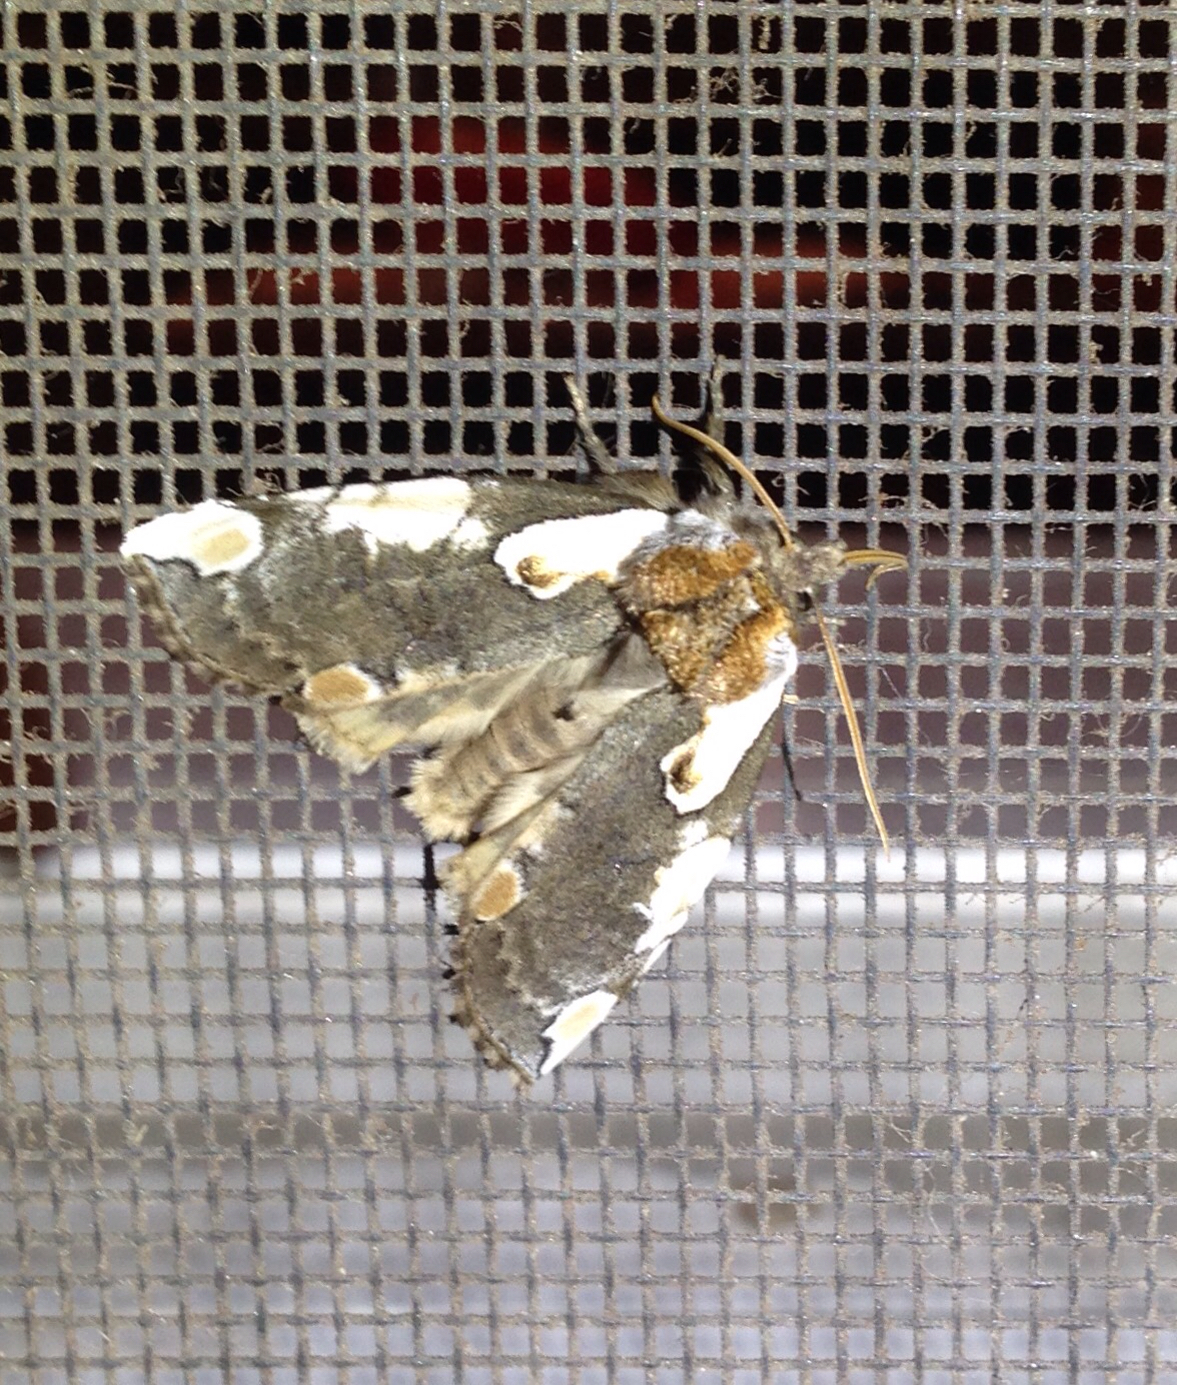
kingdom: Animalia
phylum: Arthropoda
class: Insecta
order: Lepidoptera
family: Drepanidae
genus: Euthyatira
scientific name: Euthyatira pudens
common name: Dogwood thyatirid moth
